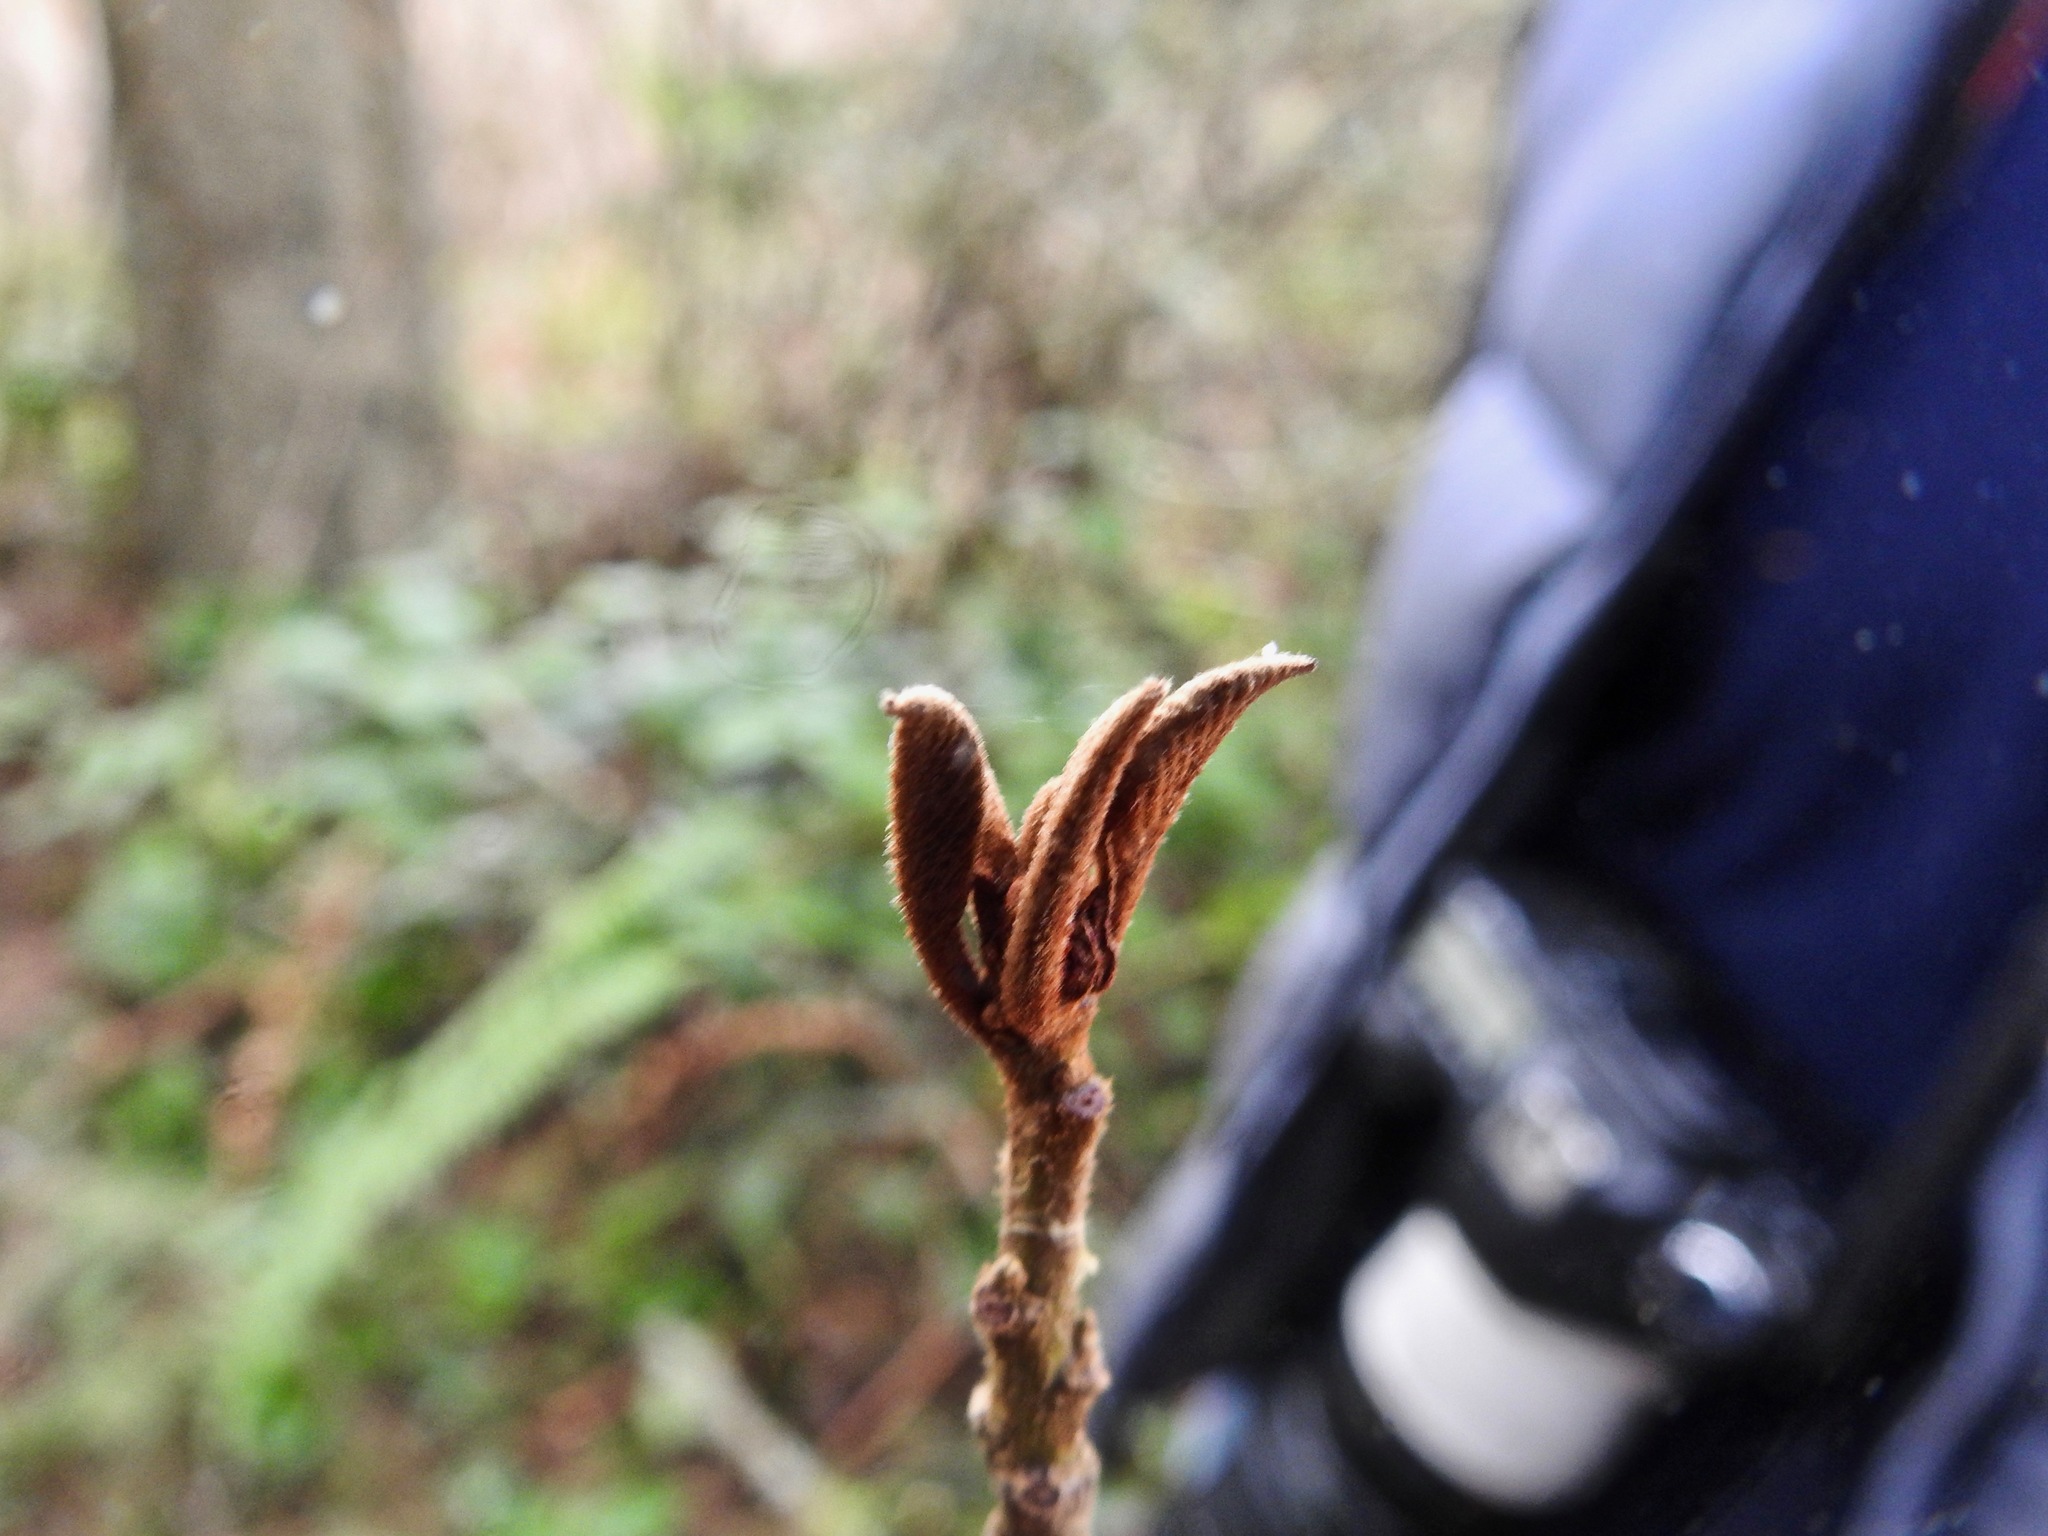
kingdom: Plantae
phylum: Tracheophyta
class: Magnoliopsida
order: Rosales
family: Rhamnaceae
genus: Frangula
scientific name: Frangula purshiana
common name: Cascara buckthorn
